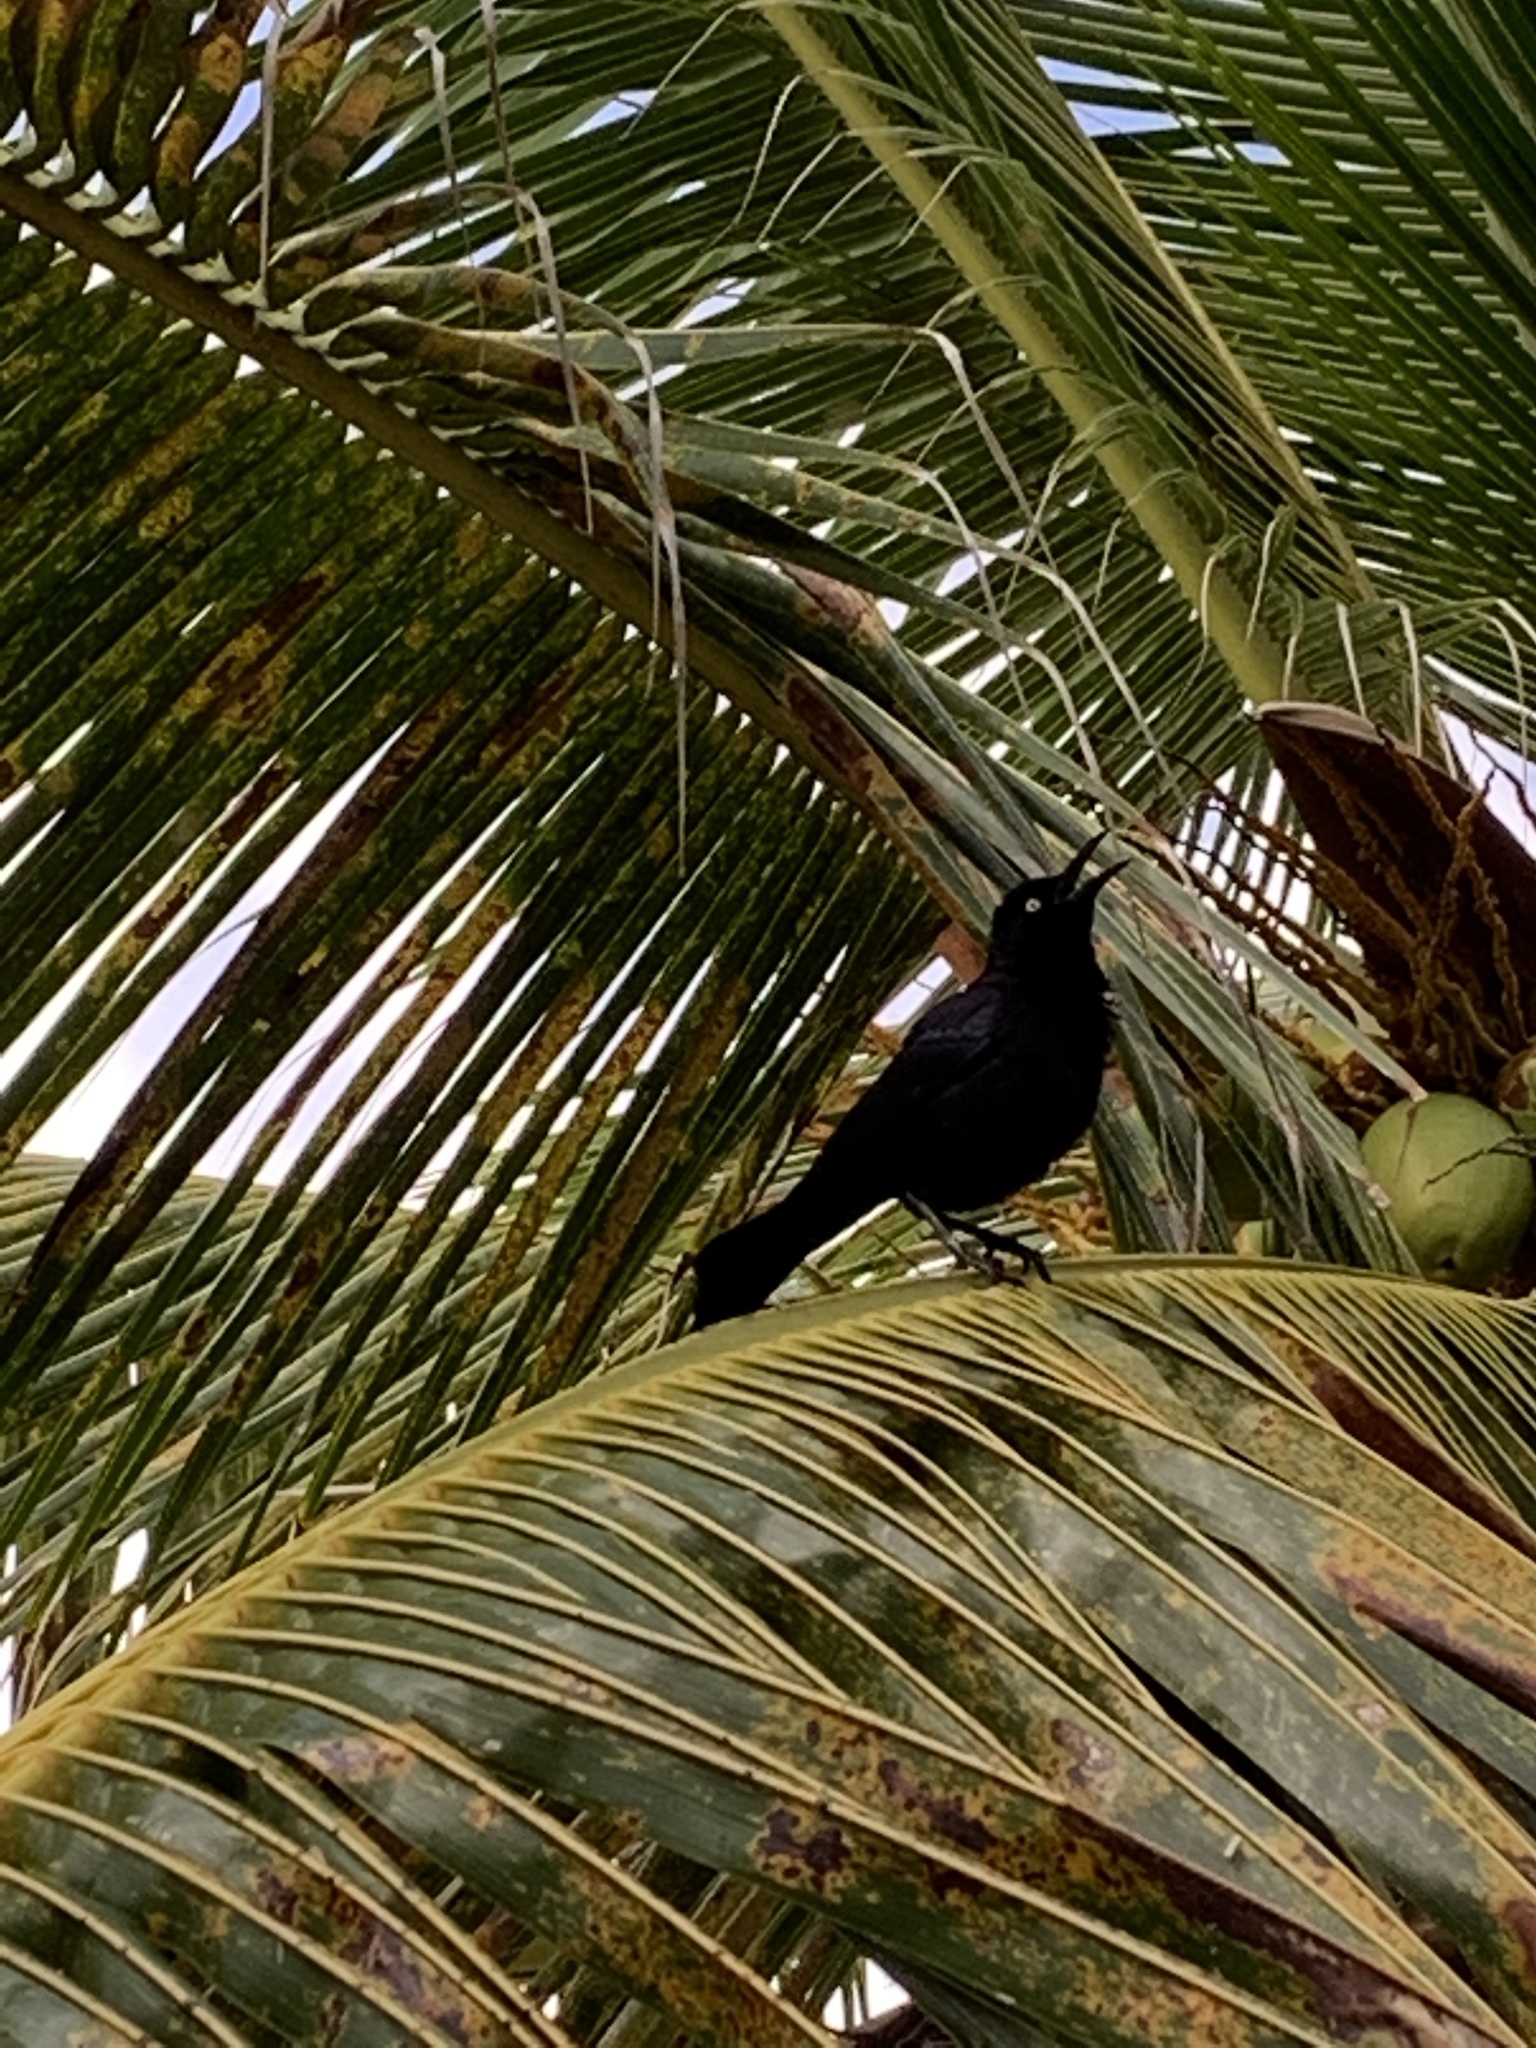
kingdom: Animalia
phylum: Chordata
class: Aves
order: Passeriformes
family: Icteridae
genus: Quiscalus
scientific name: Quiscalus lugubris
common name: Carib grackle
